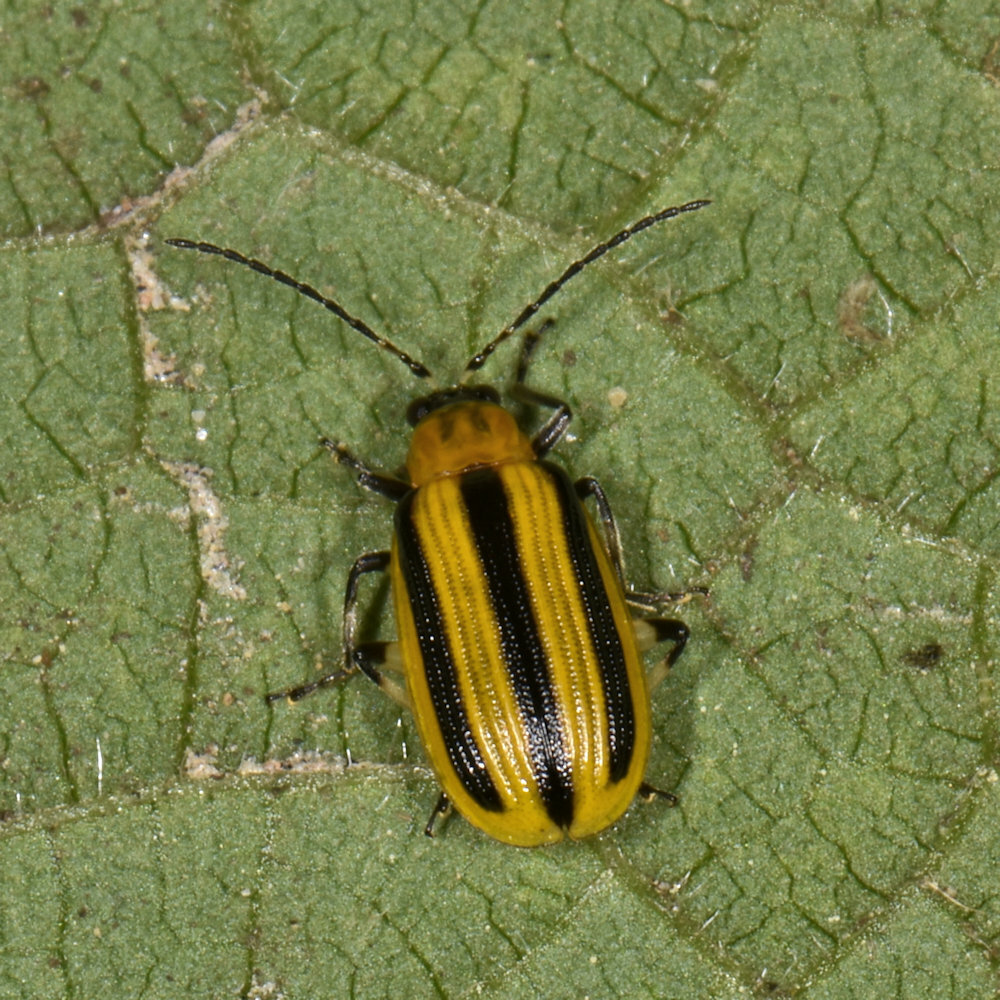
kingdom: Animalia
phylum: Arthropoda
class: Insecta
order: Coleoptera
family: Chrysomelidae
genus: Acalymma
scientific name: Acalymma vittatum
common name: Striped cucumber beetle
